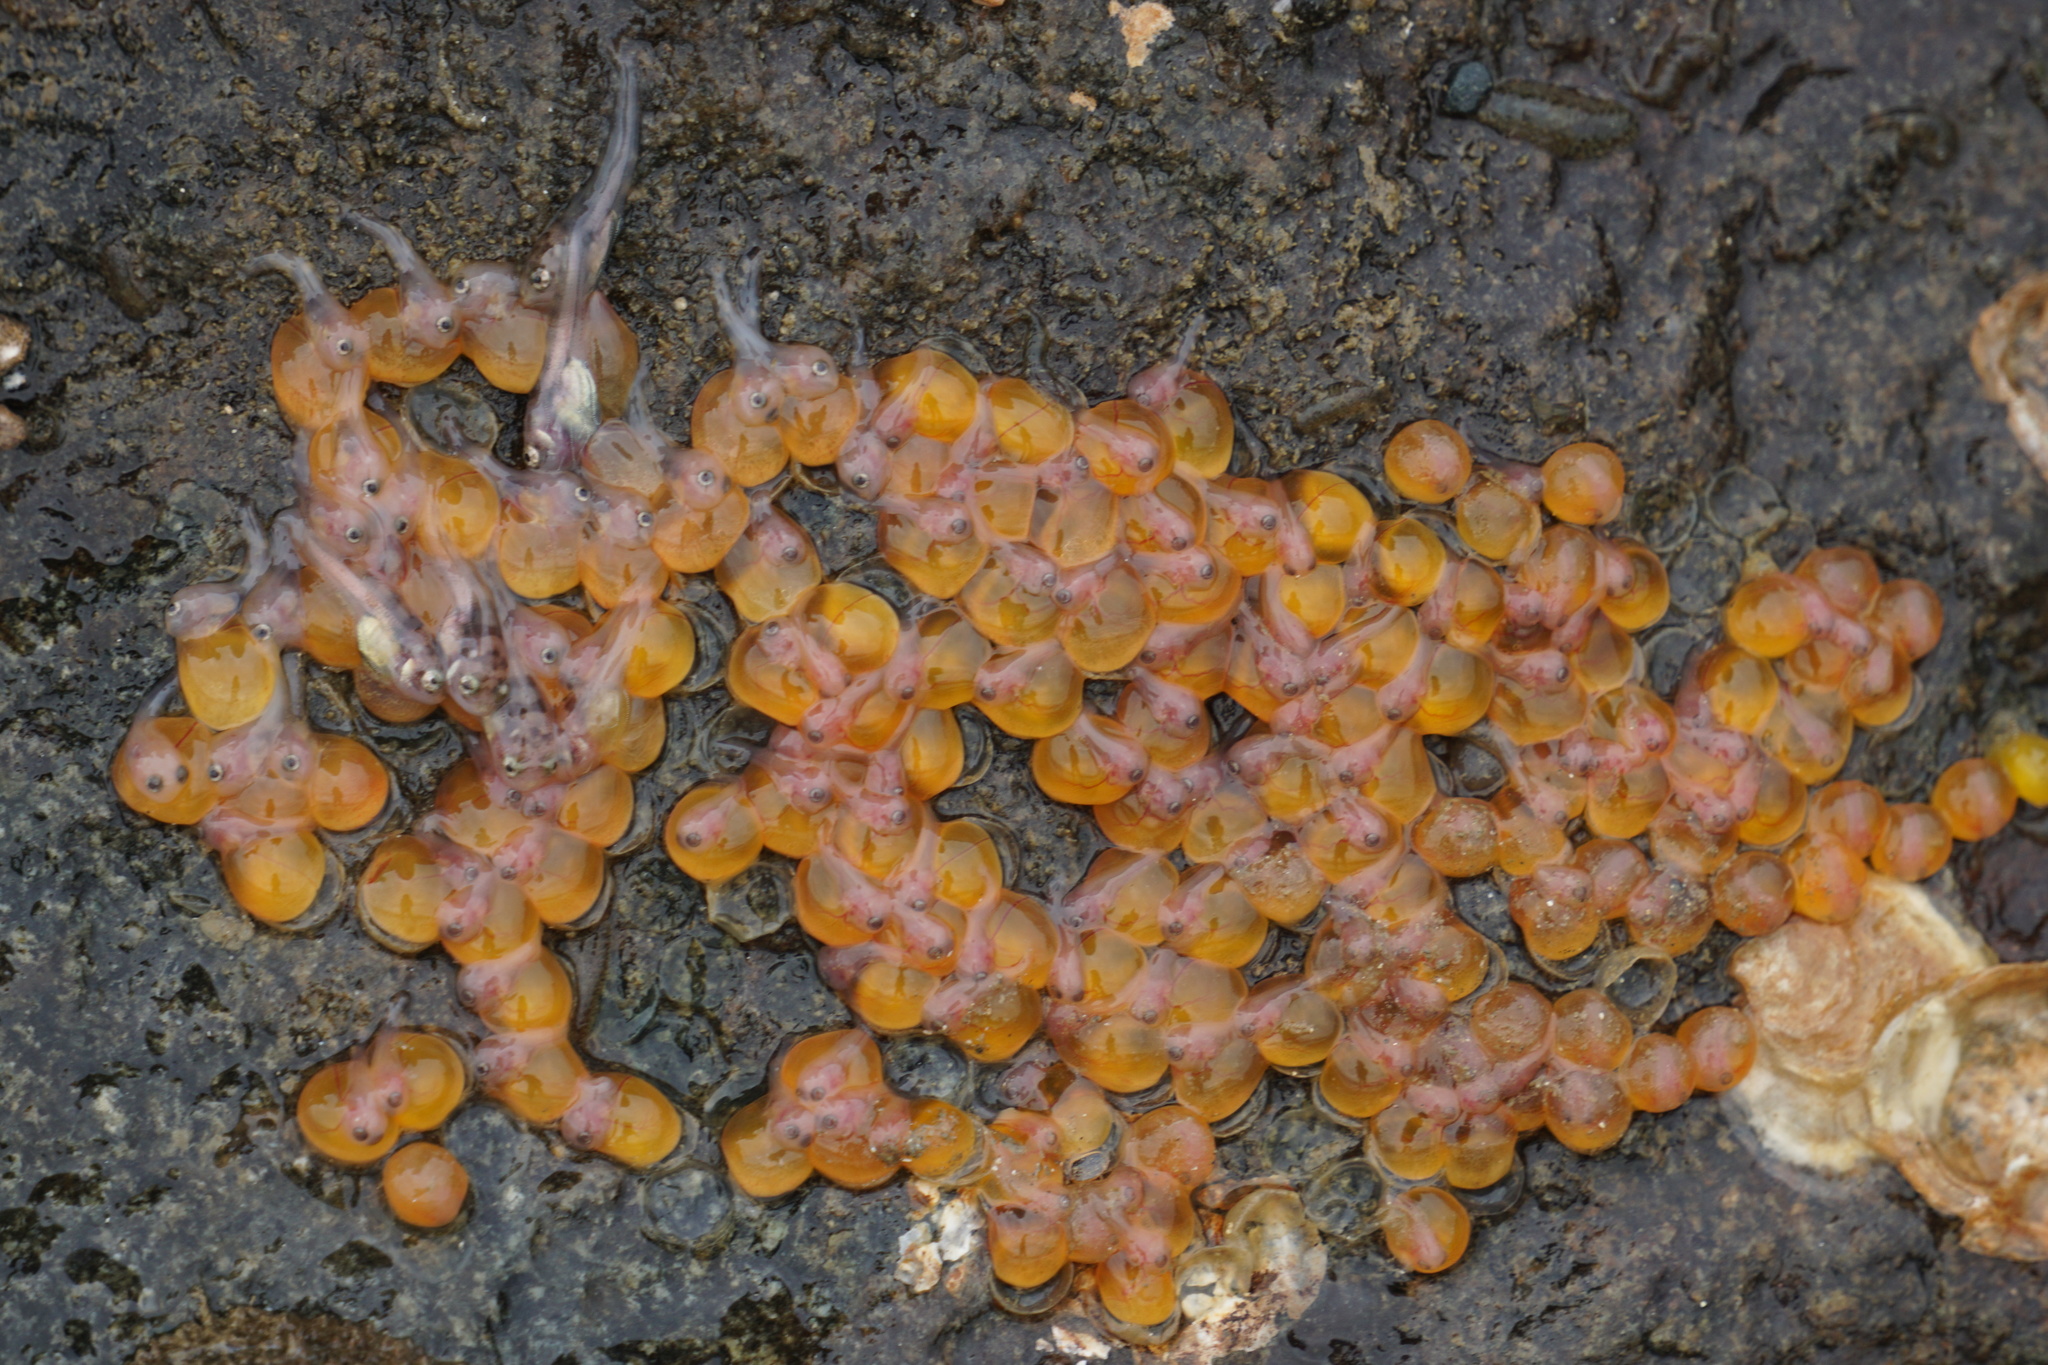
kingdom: Animalia
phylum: Chordata
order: Batrachoidiformes
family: Batrachoididae
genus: Porichthys
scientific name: Porichthys notatus
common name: Plainfin midshipman
